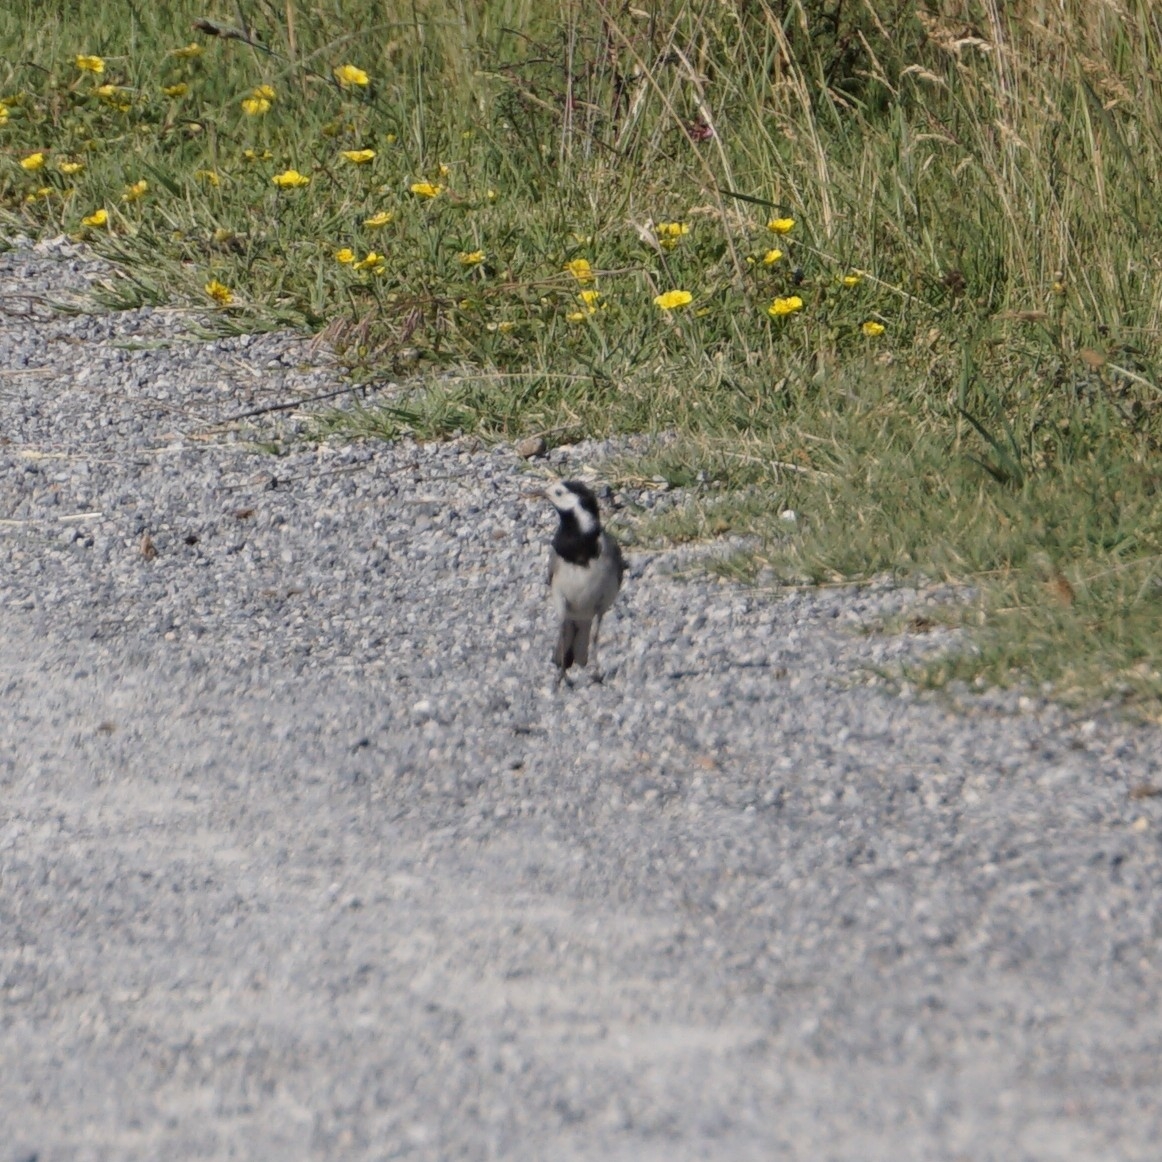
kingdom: Animalia
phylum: Chordata
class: Aves
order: Passeriformes
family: Motacillidae
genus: Motacilla
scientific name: Motacilla alba
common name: White wagtail
